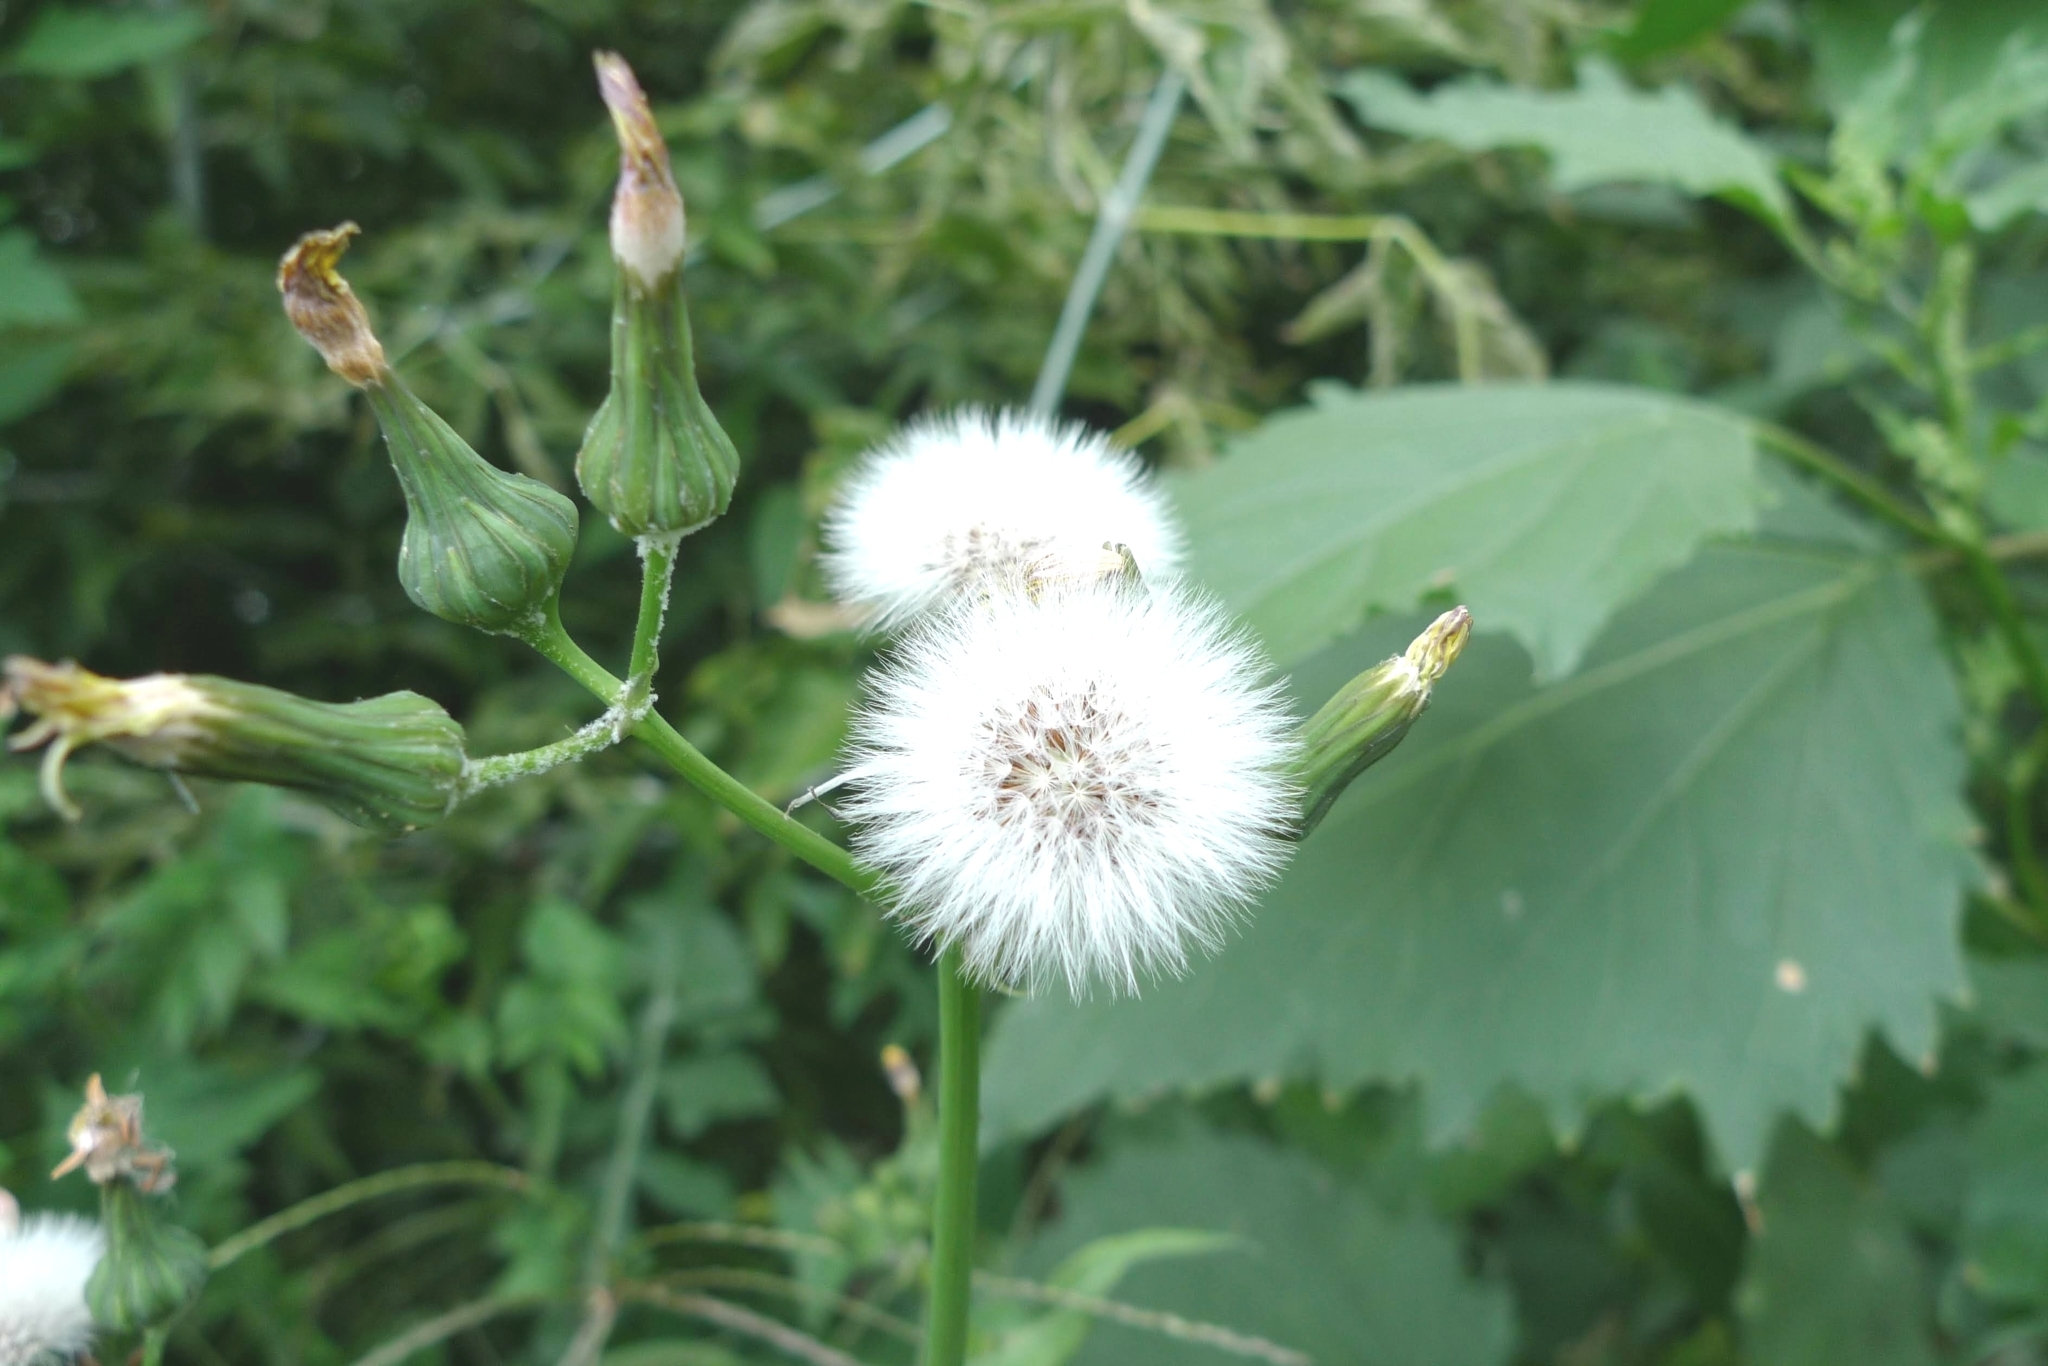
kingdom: Plantae
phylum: Tracheophyta
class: Magnoliopsida
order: Asterales
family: Asteraceae
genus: Sonchus
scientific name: Sonchus oleraceus
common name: Common sowthistle
